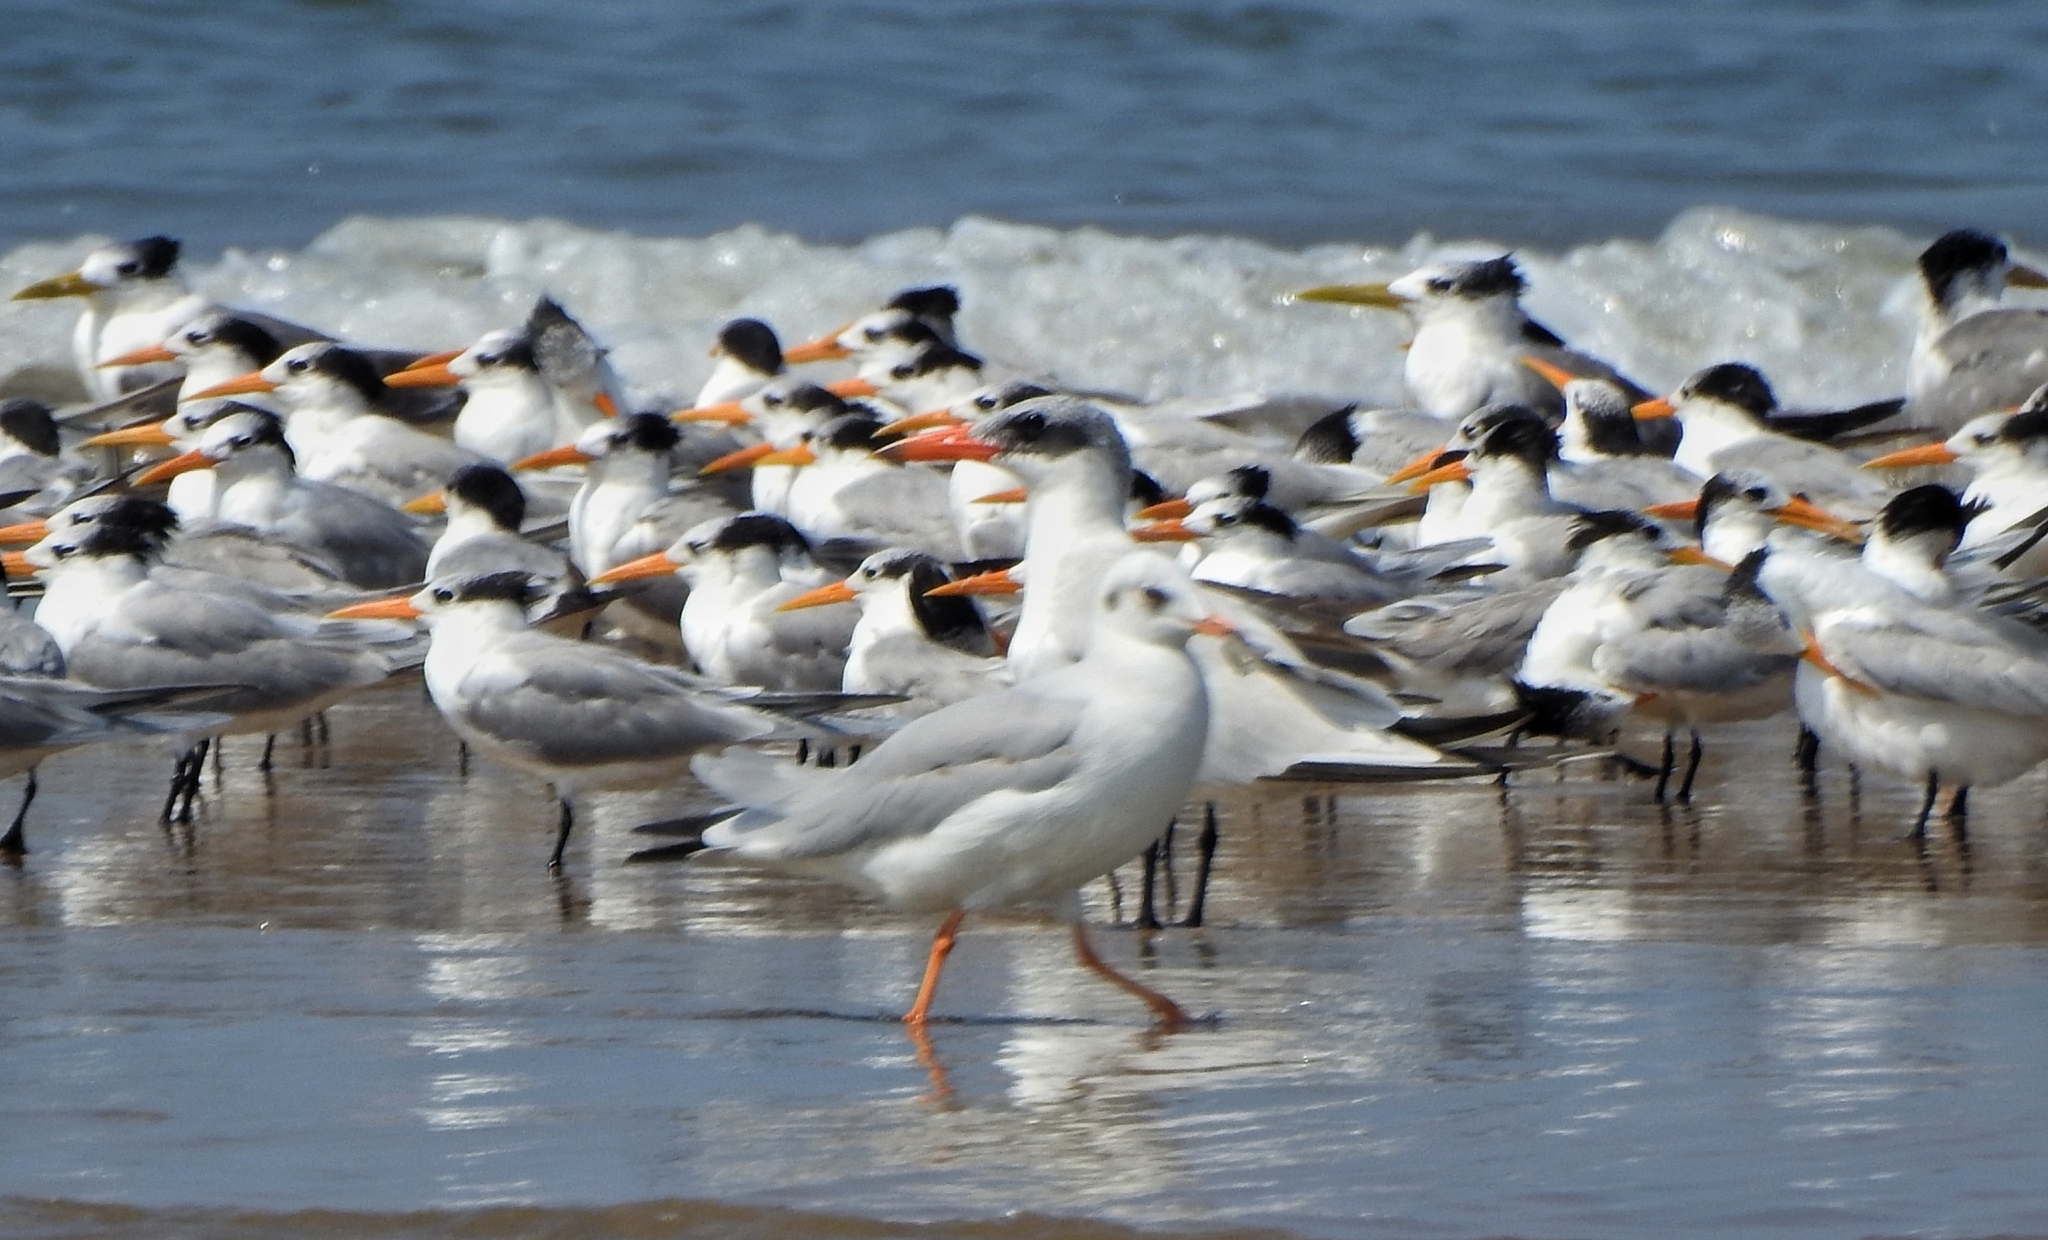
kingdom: Animalia
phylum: Chordata
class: Aves
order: Charadriiformes
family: Laridae
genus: Thalasseus
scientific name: Thalasseus bergii
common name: Greater crested tern
